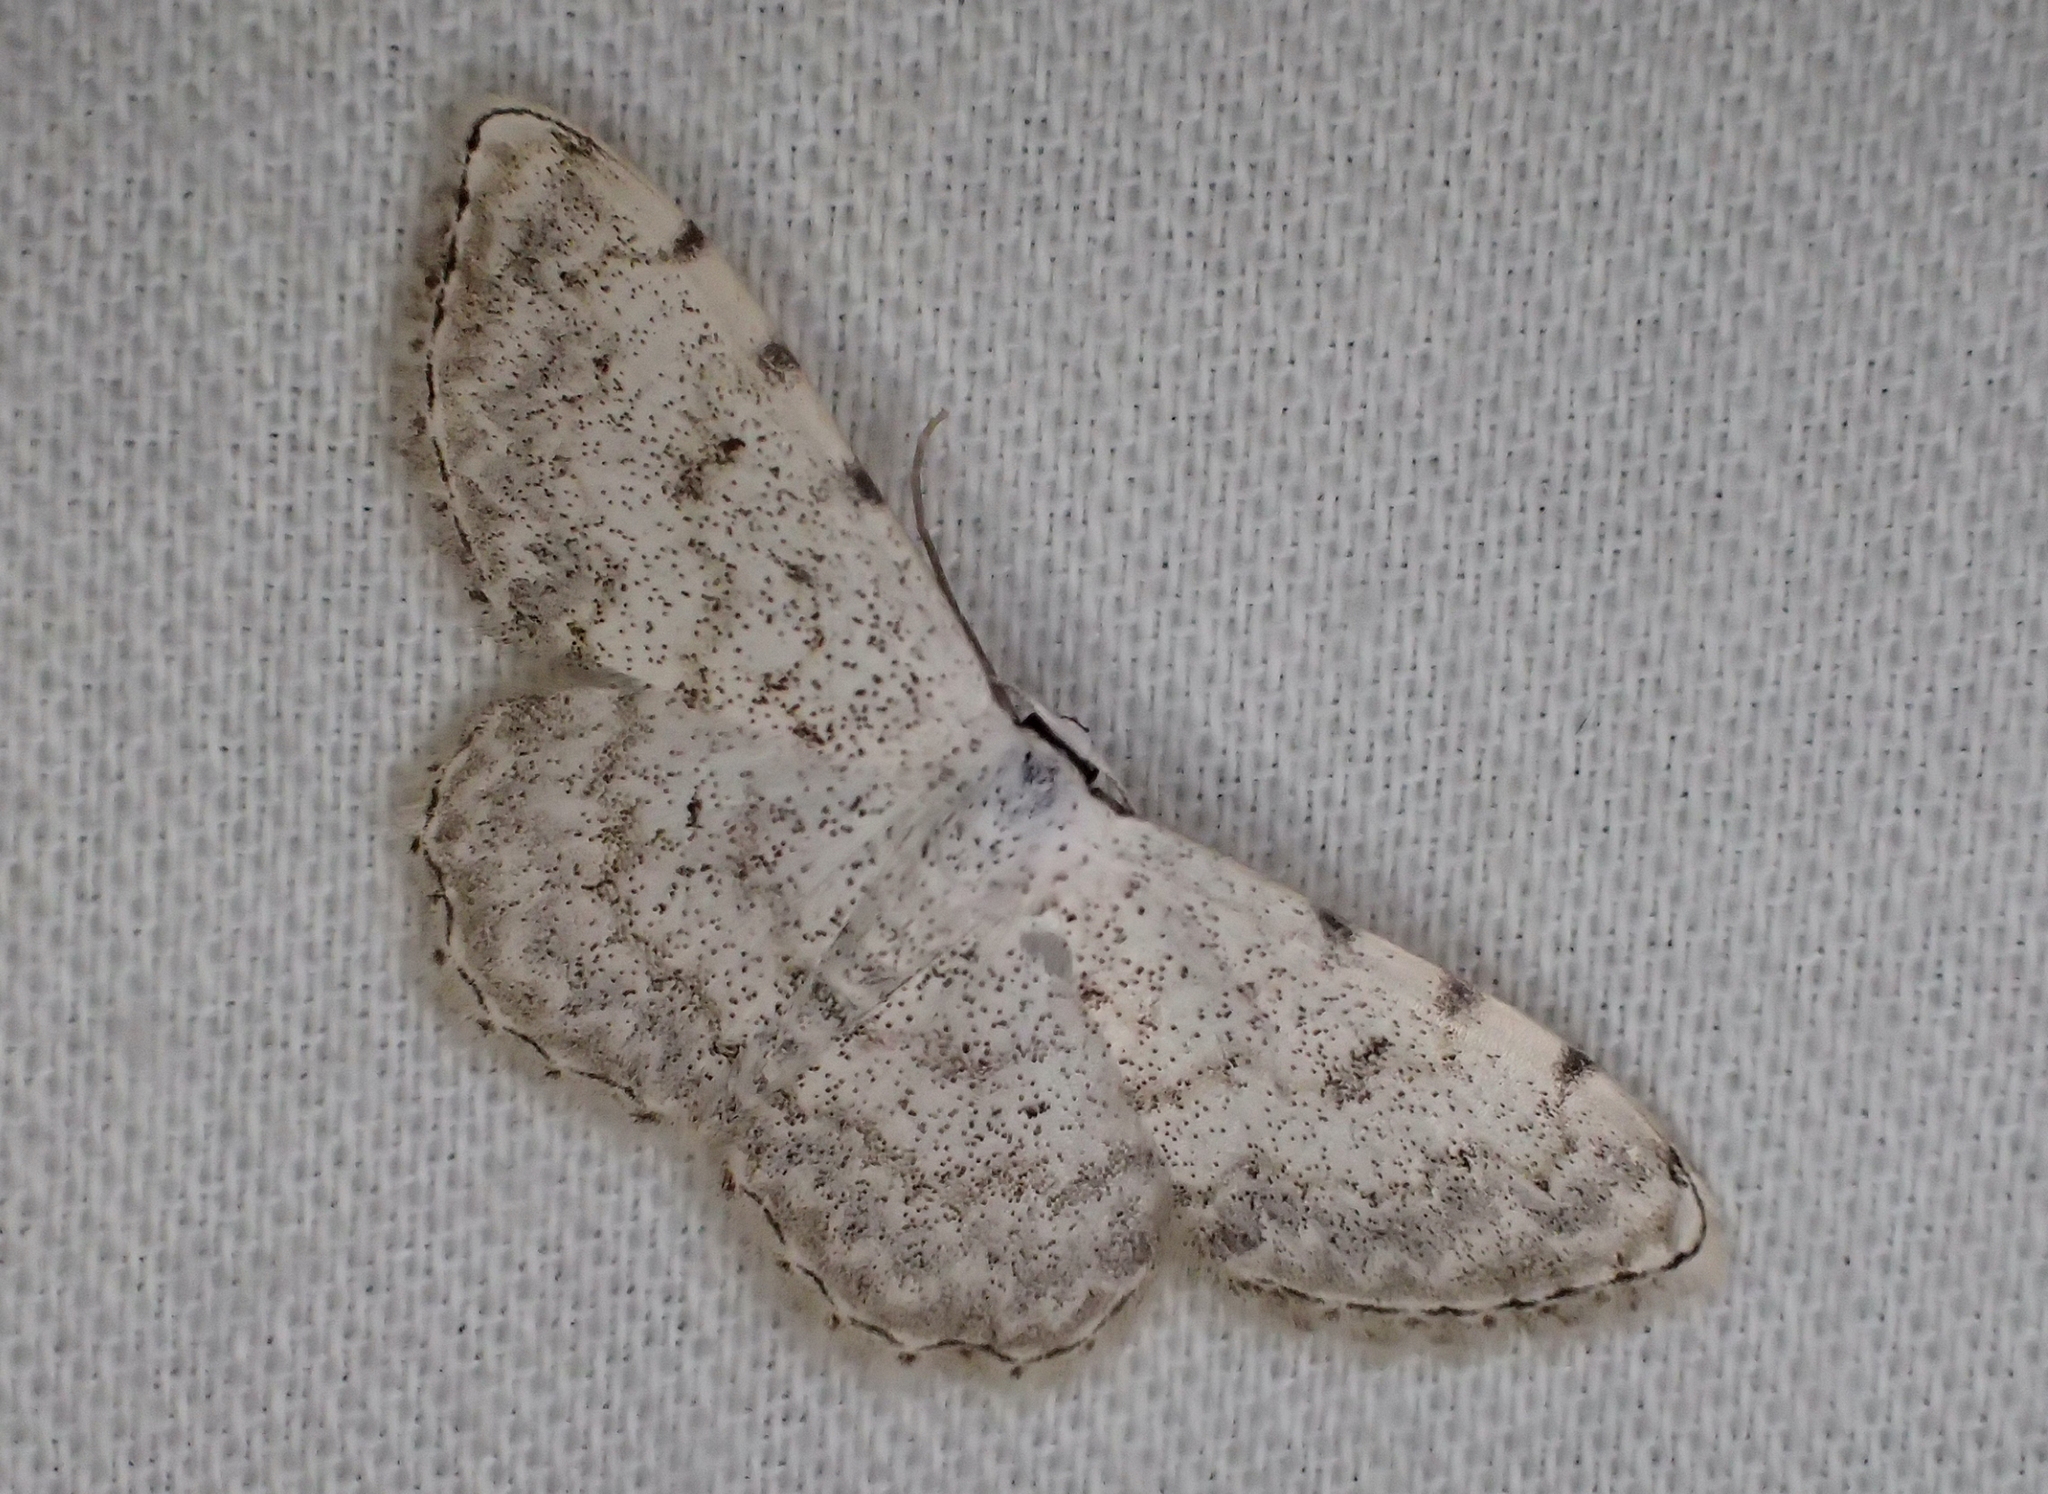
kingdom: Animalia
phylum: Arthropoda
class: Insecta
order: Lepidoptera
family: Geometridae
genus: Scopula
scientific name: Scopula submutata
